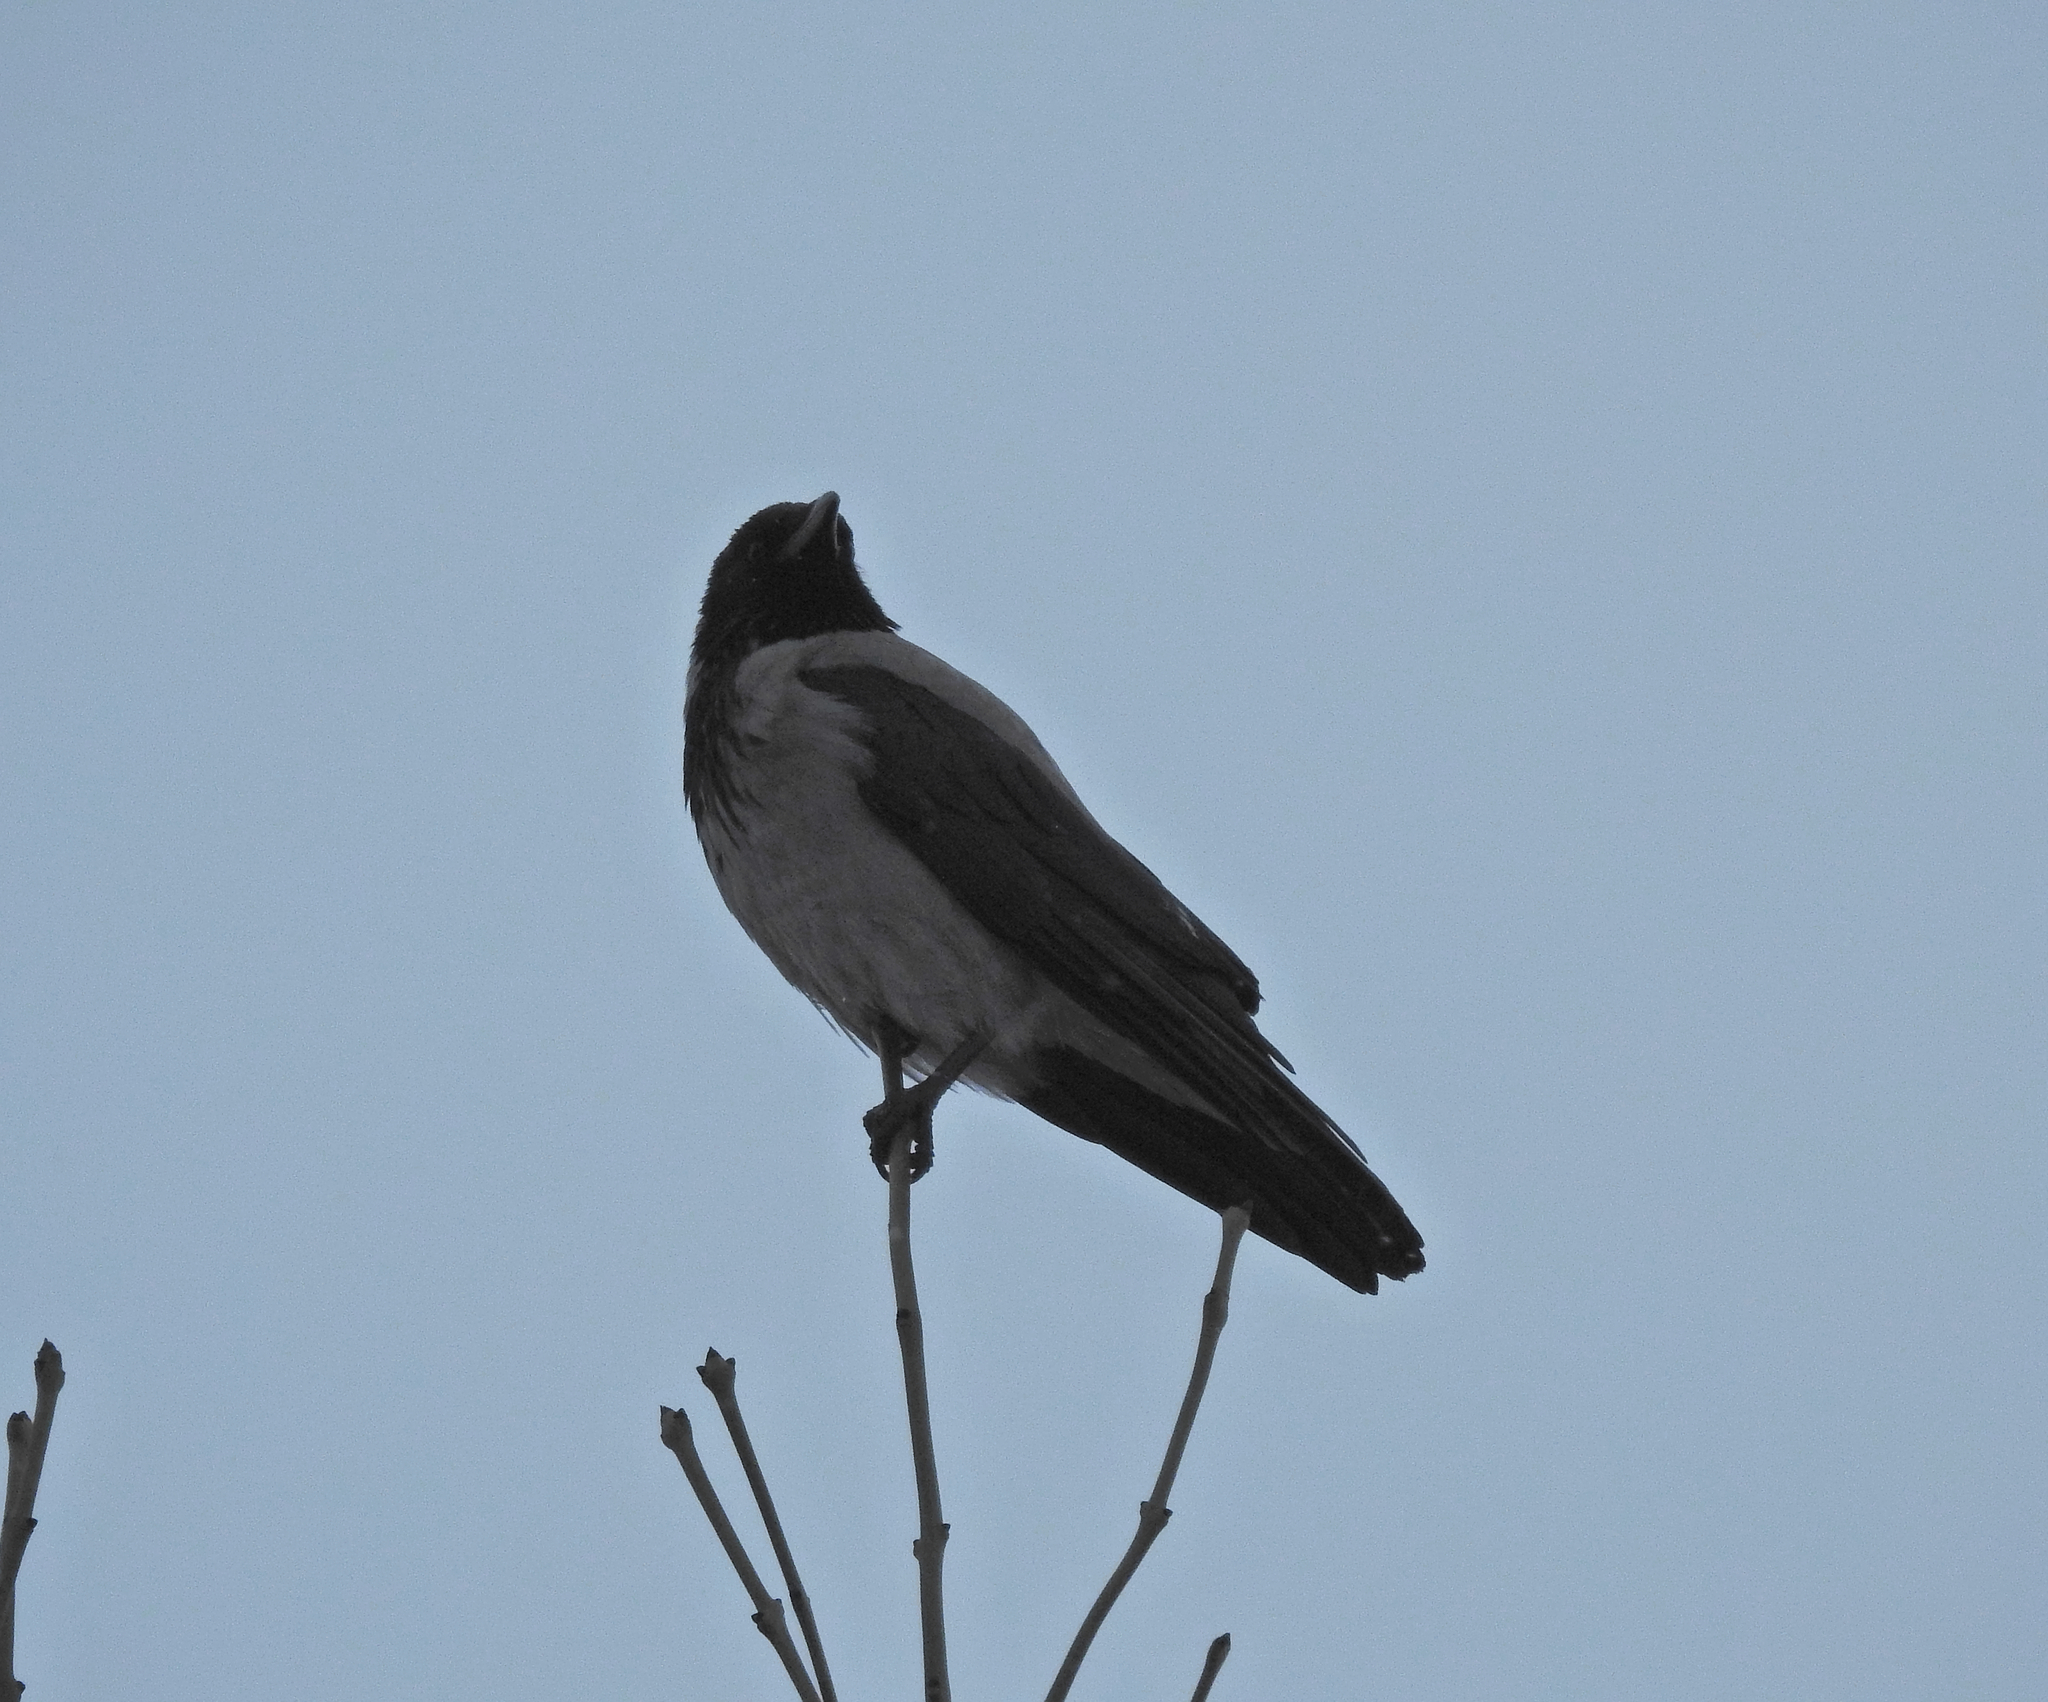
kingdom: Animalia
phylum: Chordata
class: Aves
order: Passeriformes
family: Corvidae
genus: Corvus
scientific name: Corvus cornix
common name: Hooded crow
